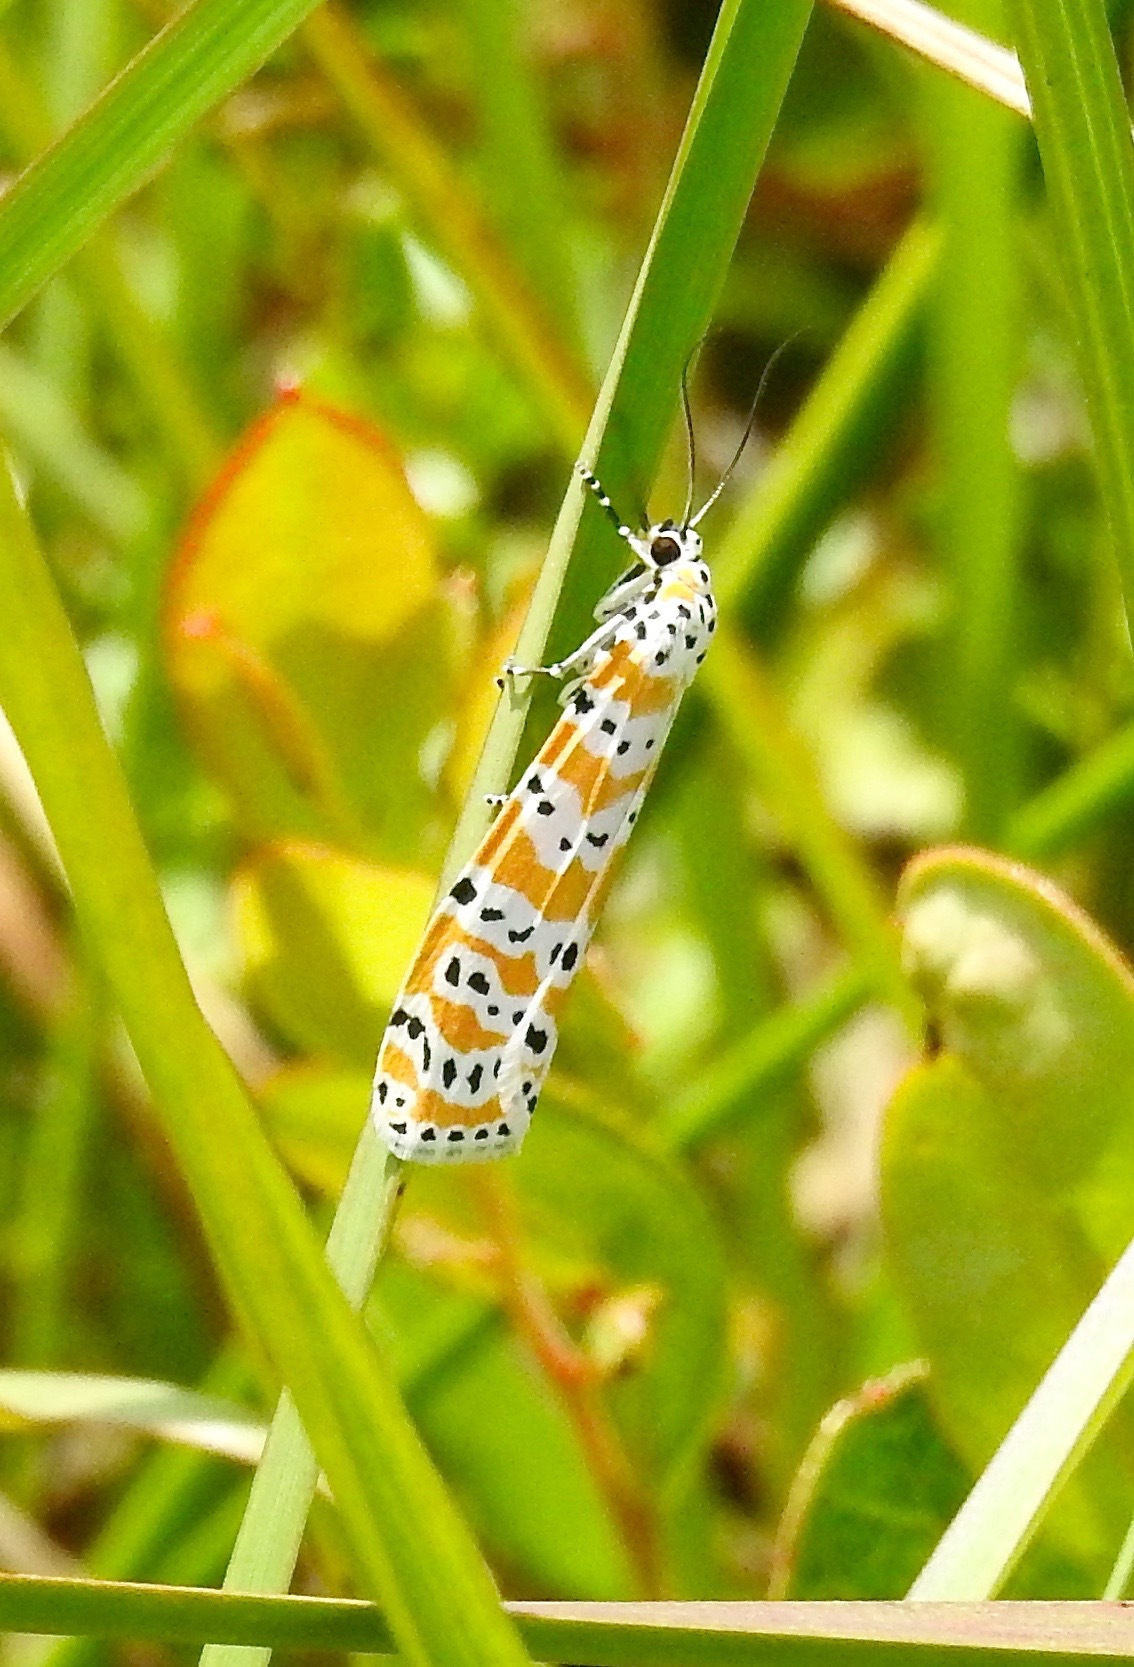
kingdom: Animalia
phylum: Arthropoda
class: Insecta
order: Lepidoptera
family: Erebidae
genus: Utetheisa
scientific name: Utetheisa ornatrix
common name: Beautiful utetheisa
